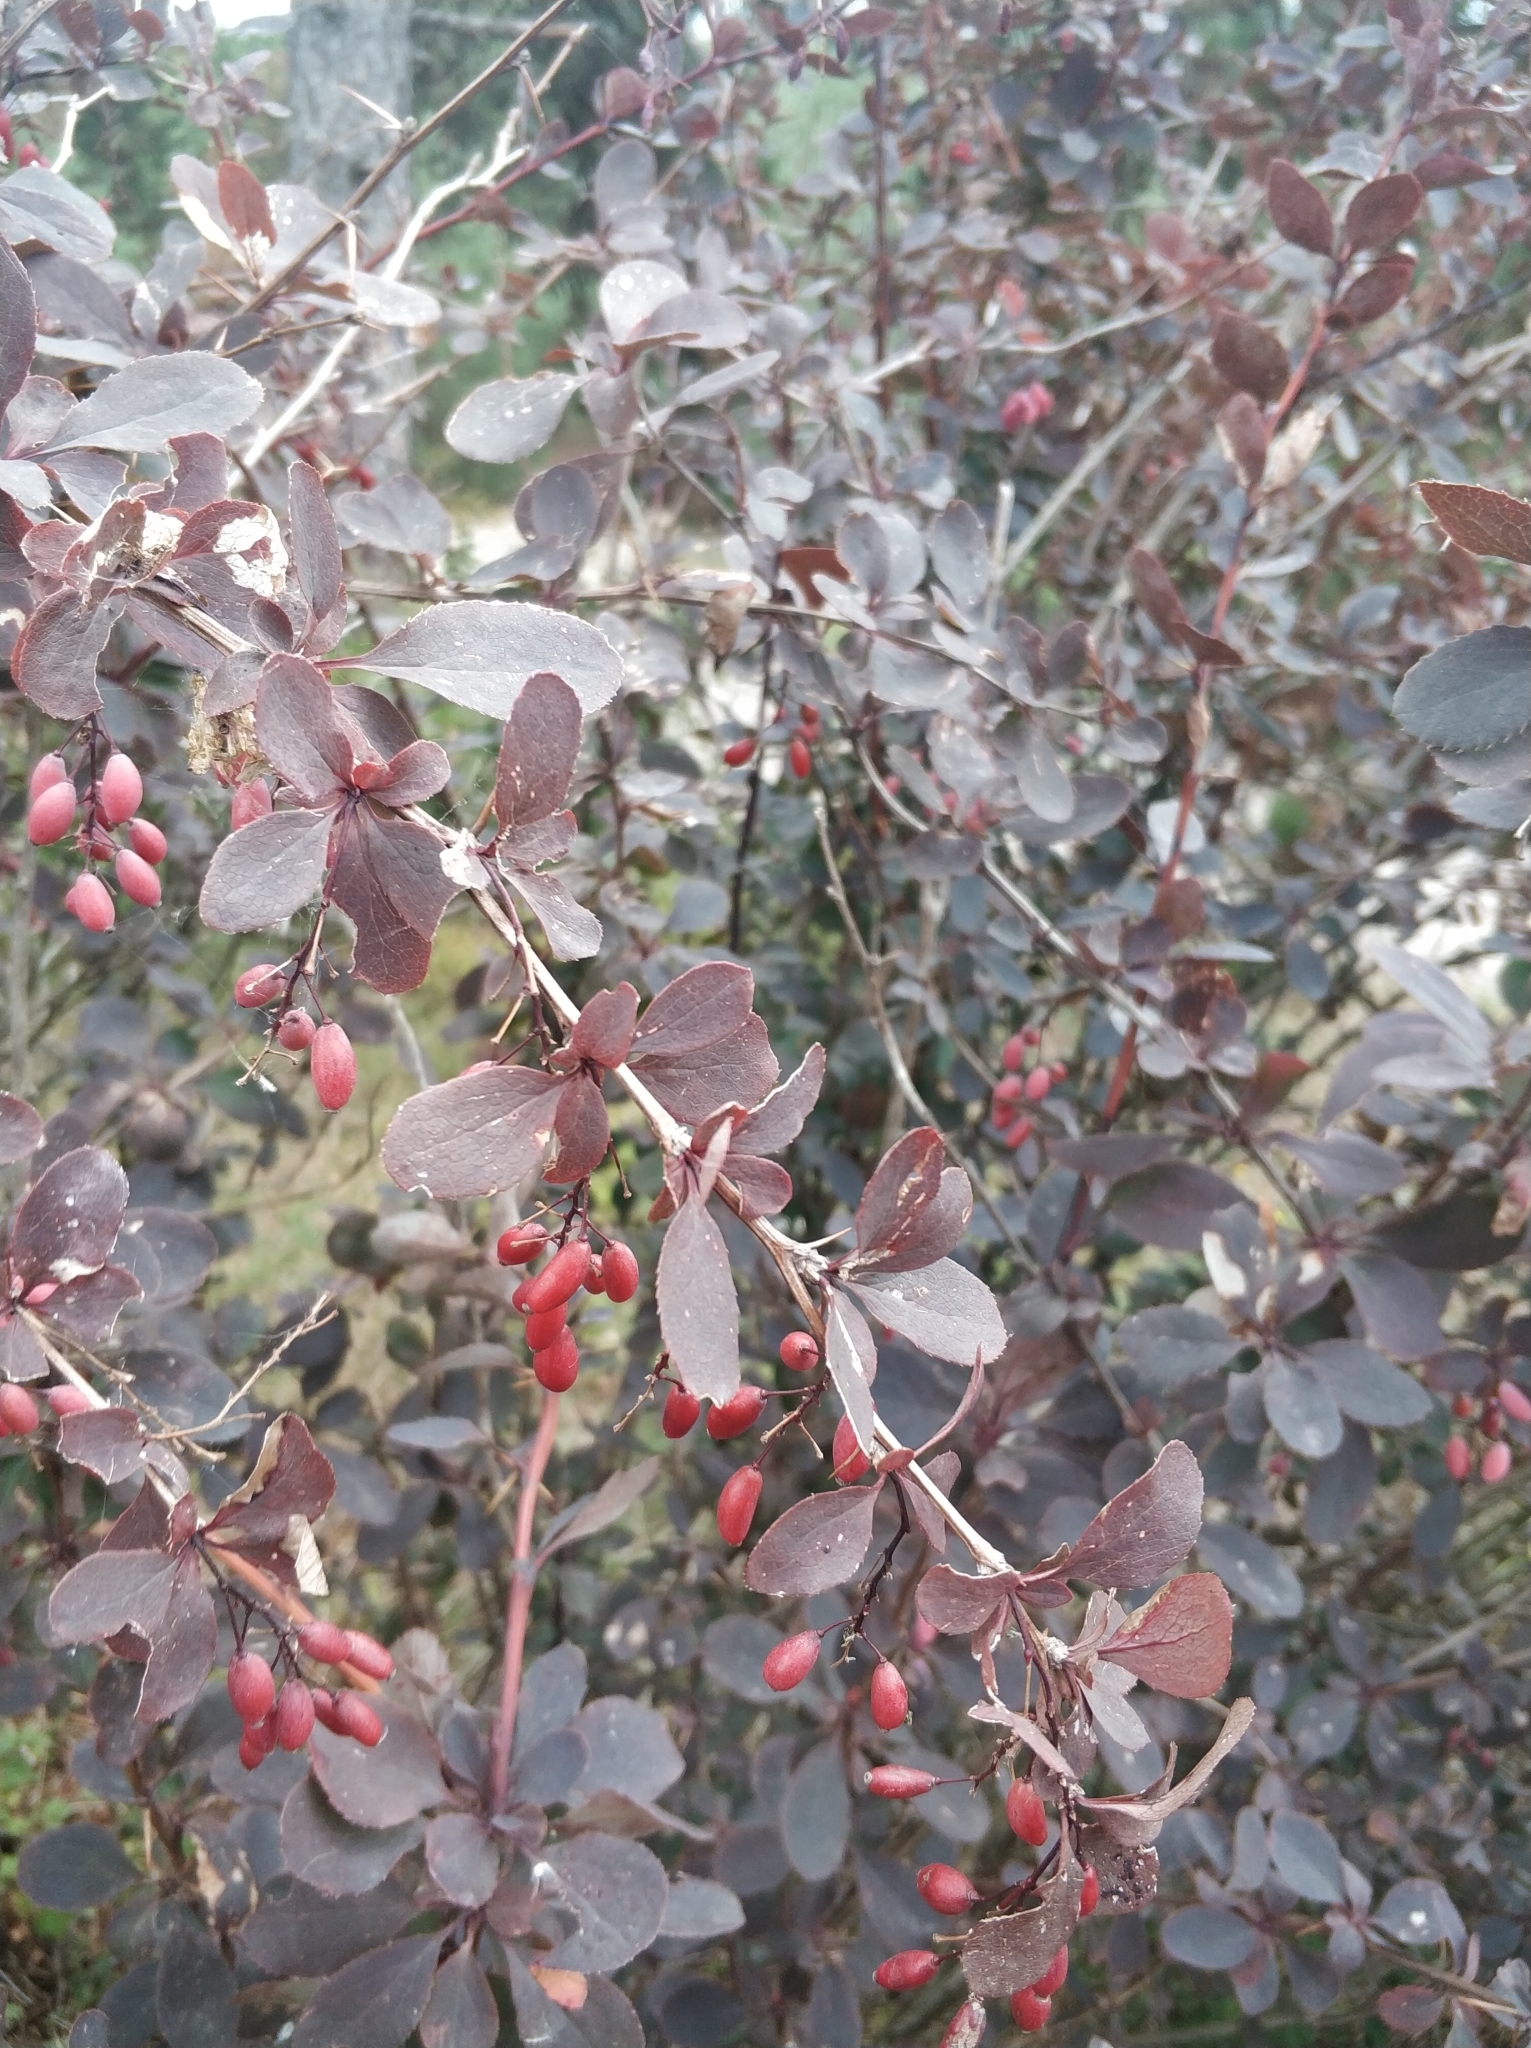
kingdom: Plantae
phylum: Tracheophyta
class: Magnoliopsida
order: Ranunculales
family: Berberidaceae
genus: Berberis
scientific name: Berberis vulgaris
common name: Barberry
